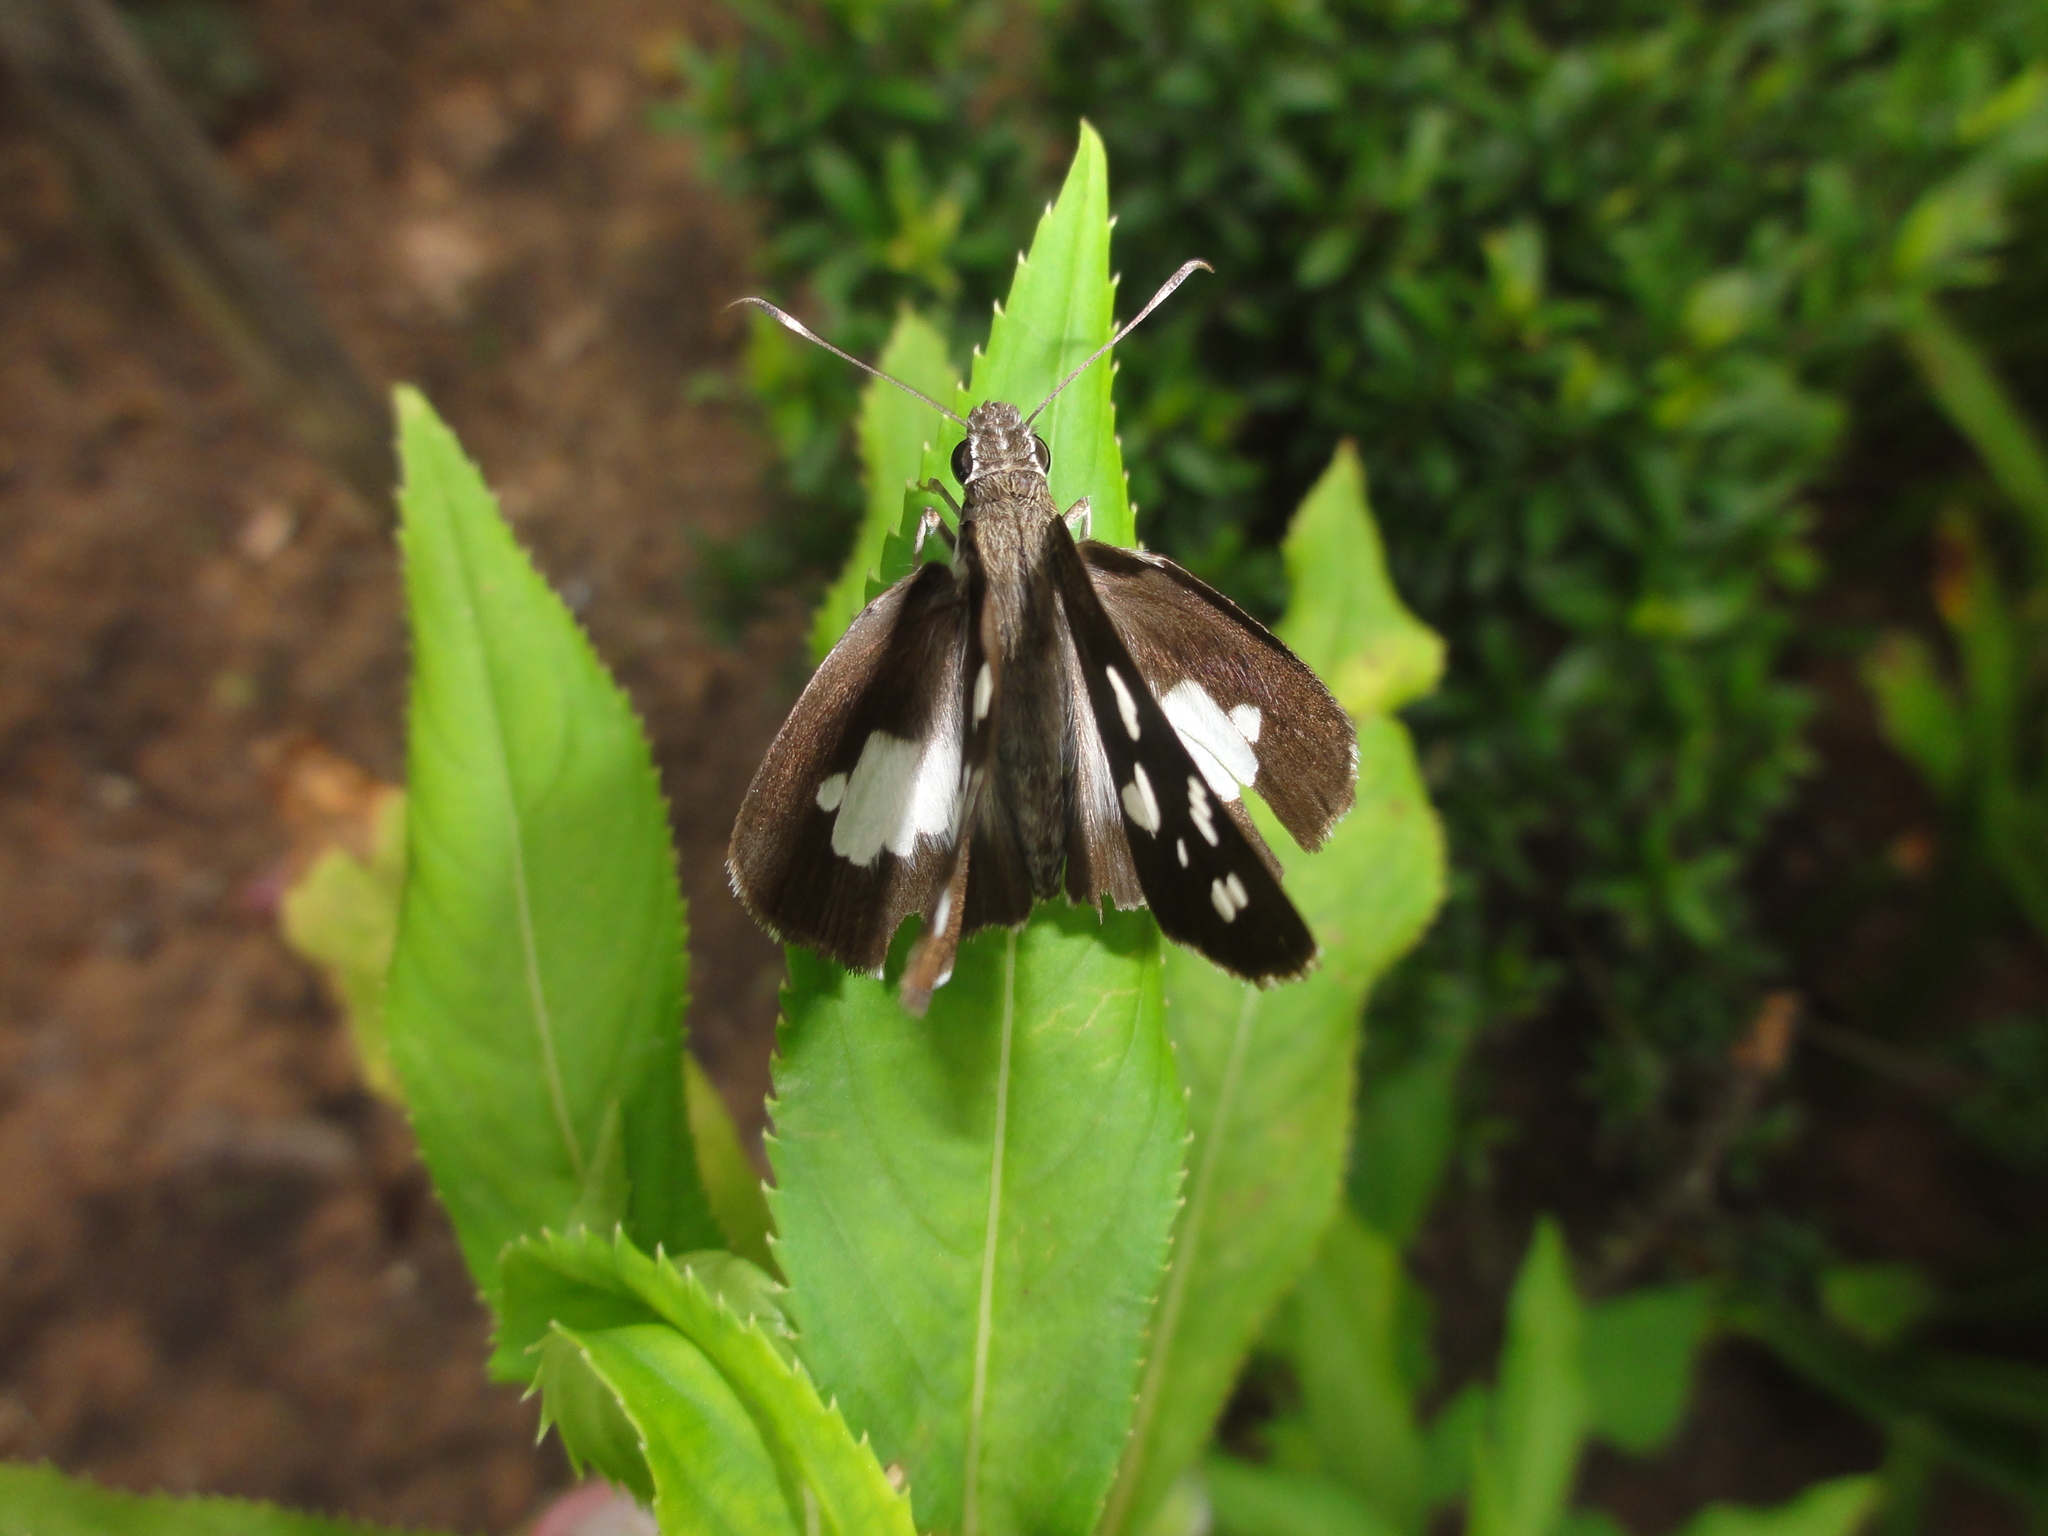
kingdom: Animalia
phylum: Arthropoda
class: Insecta
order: Lepidoptera
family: Hesperiidae
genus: Udaspes
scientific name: Udaspes folus
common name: Grass demon
